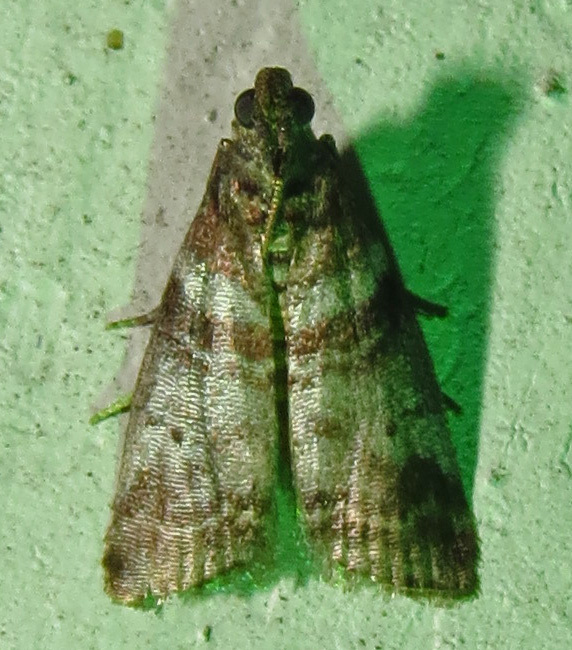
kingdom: Animalia
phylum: Arthropoda
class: Insecta
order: Lepidoptera
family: Pyralidae
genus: Sciota
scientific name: Sciota uvinella
